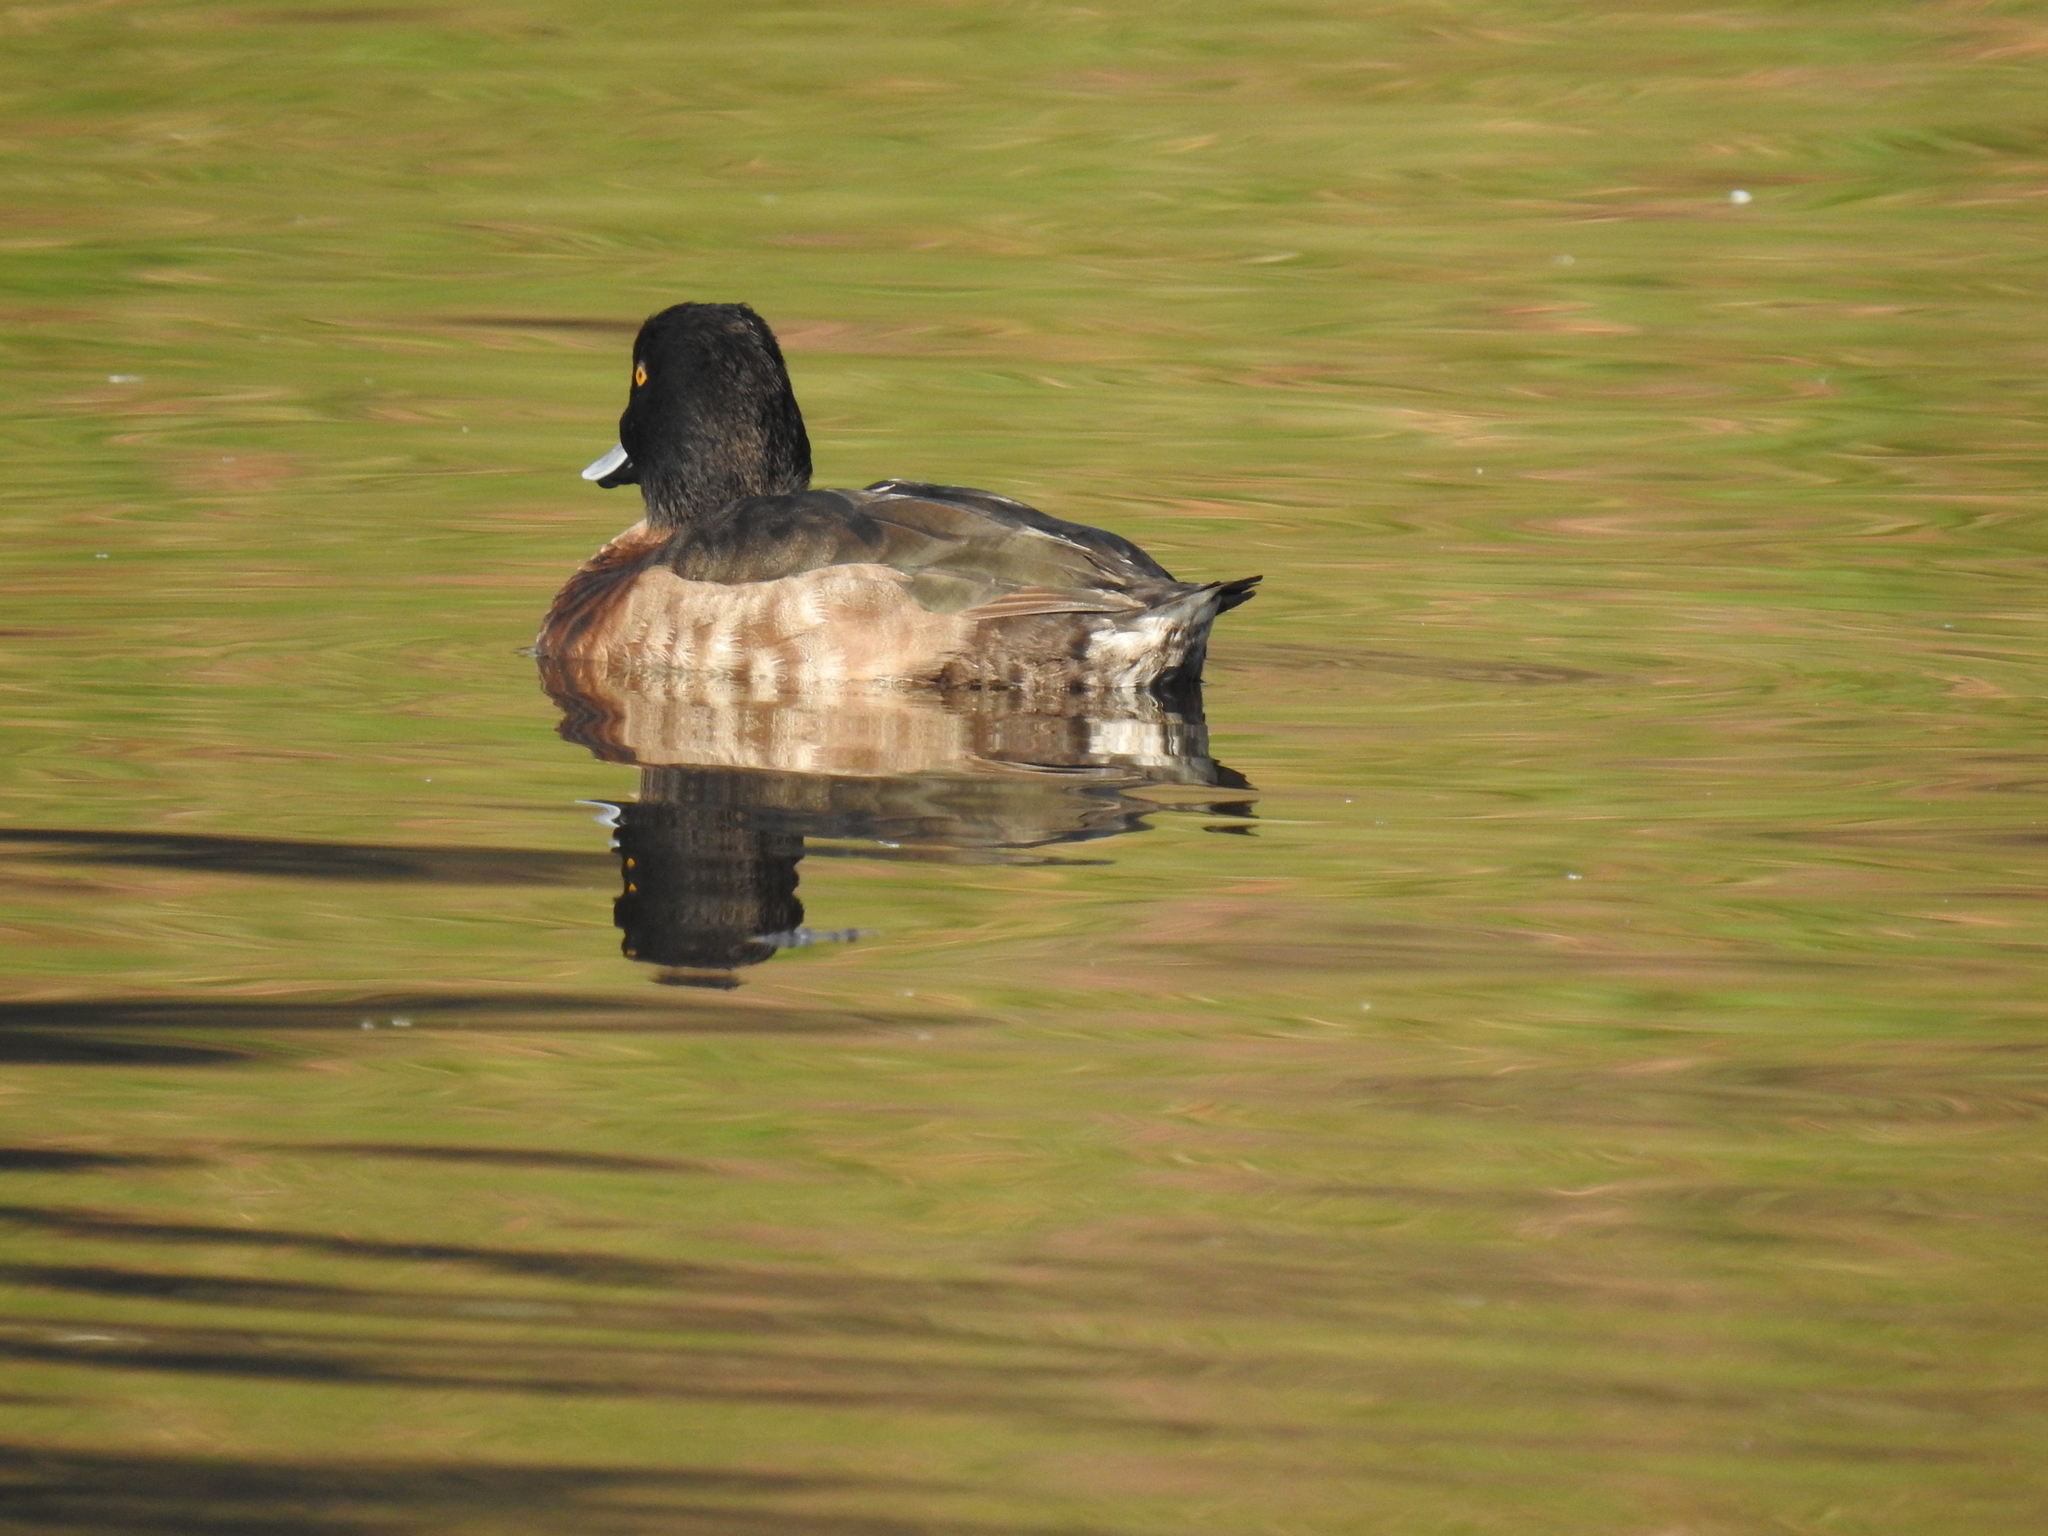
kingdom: Animalia
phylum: Chordata
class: Aves
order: Anseriformes
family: Anatidae
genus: Aythya
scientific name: Aythya fuligula
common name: Tufted duck
